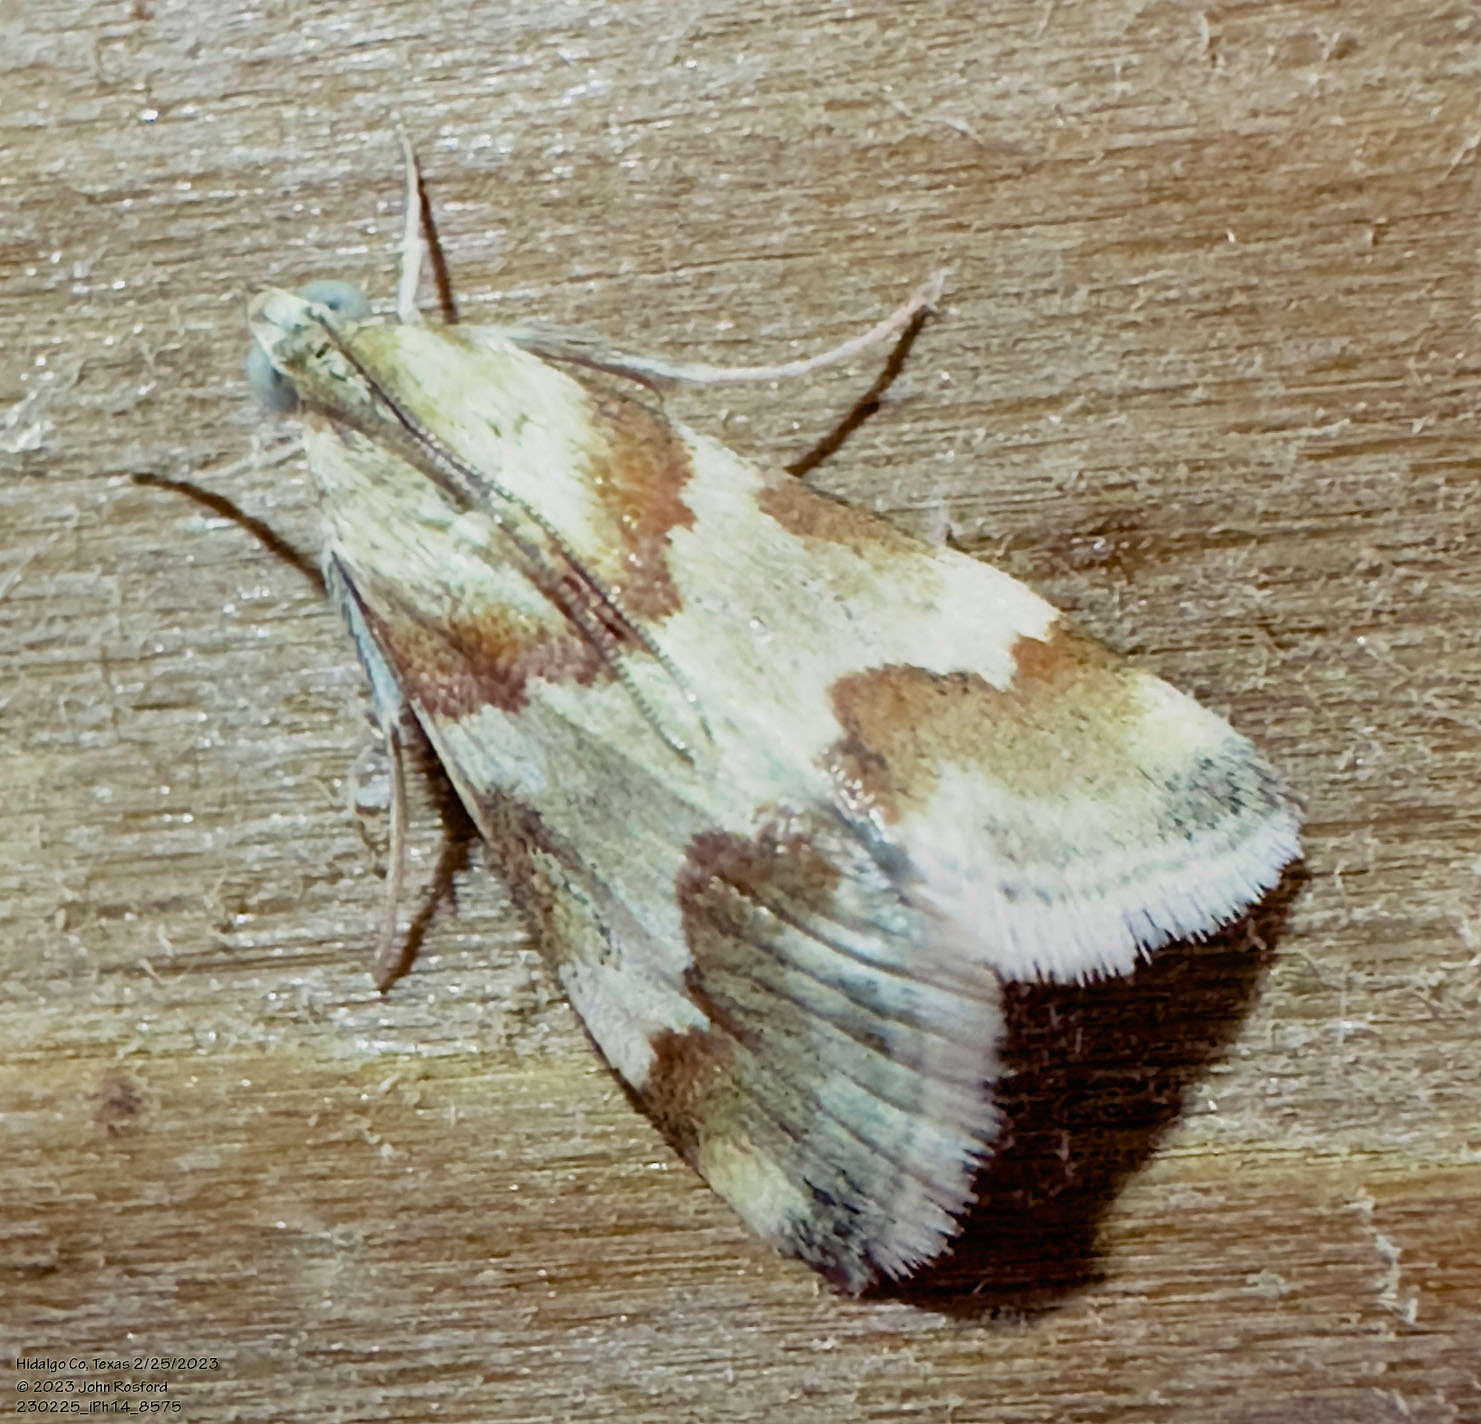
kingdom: Animalia
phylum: Arthropoda
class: Insecta
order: Lepidoptera
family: Crambidae
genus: Noctuelia
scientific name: Noctuelia Mimoschinia rufofascialis
